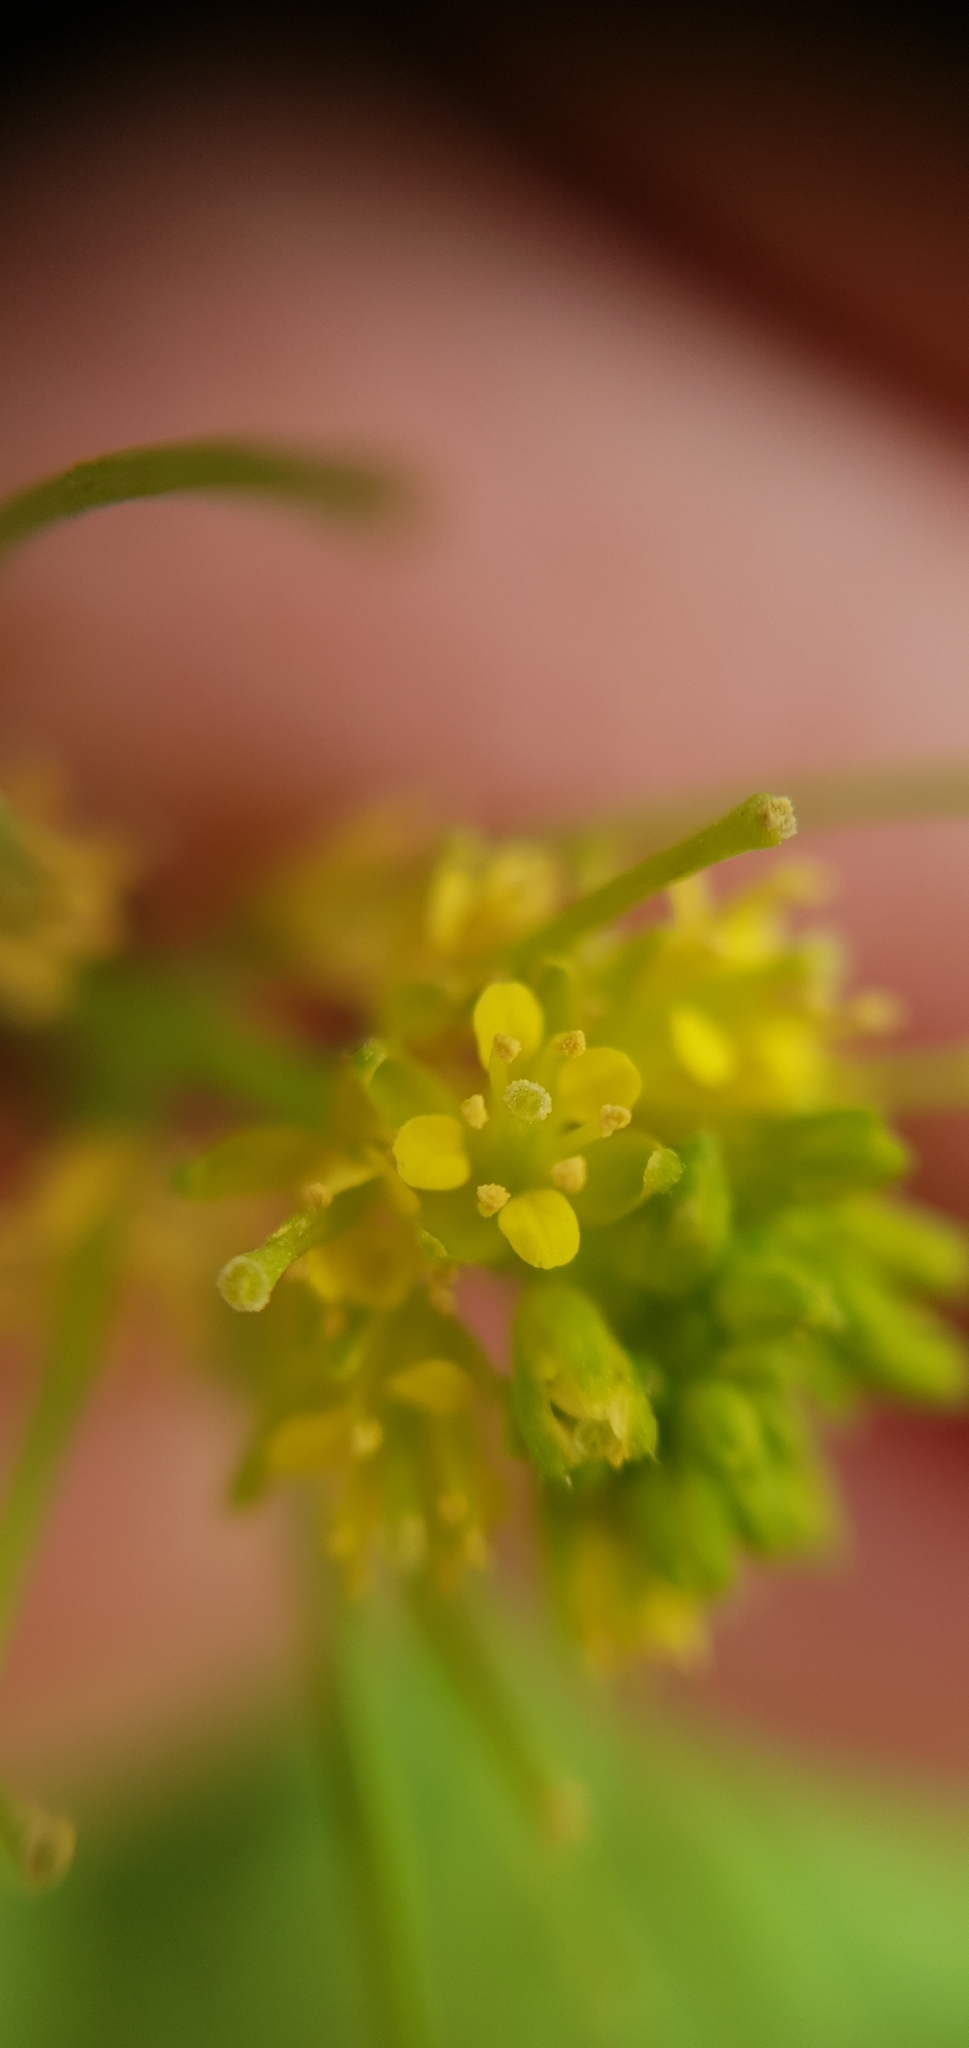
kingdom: Plantae
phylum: Tracheophyta
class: Magnoliopsida
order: Brassicales
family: Brassicaceae
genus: Sisymbrium
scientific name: Sisymbrium erysimoides
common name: French rocket
